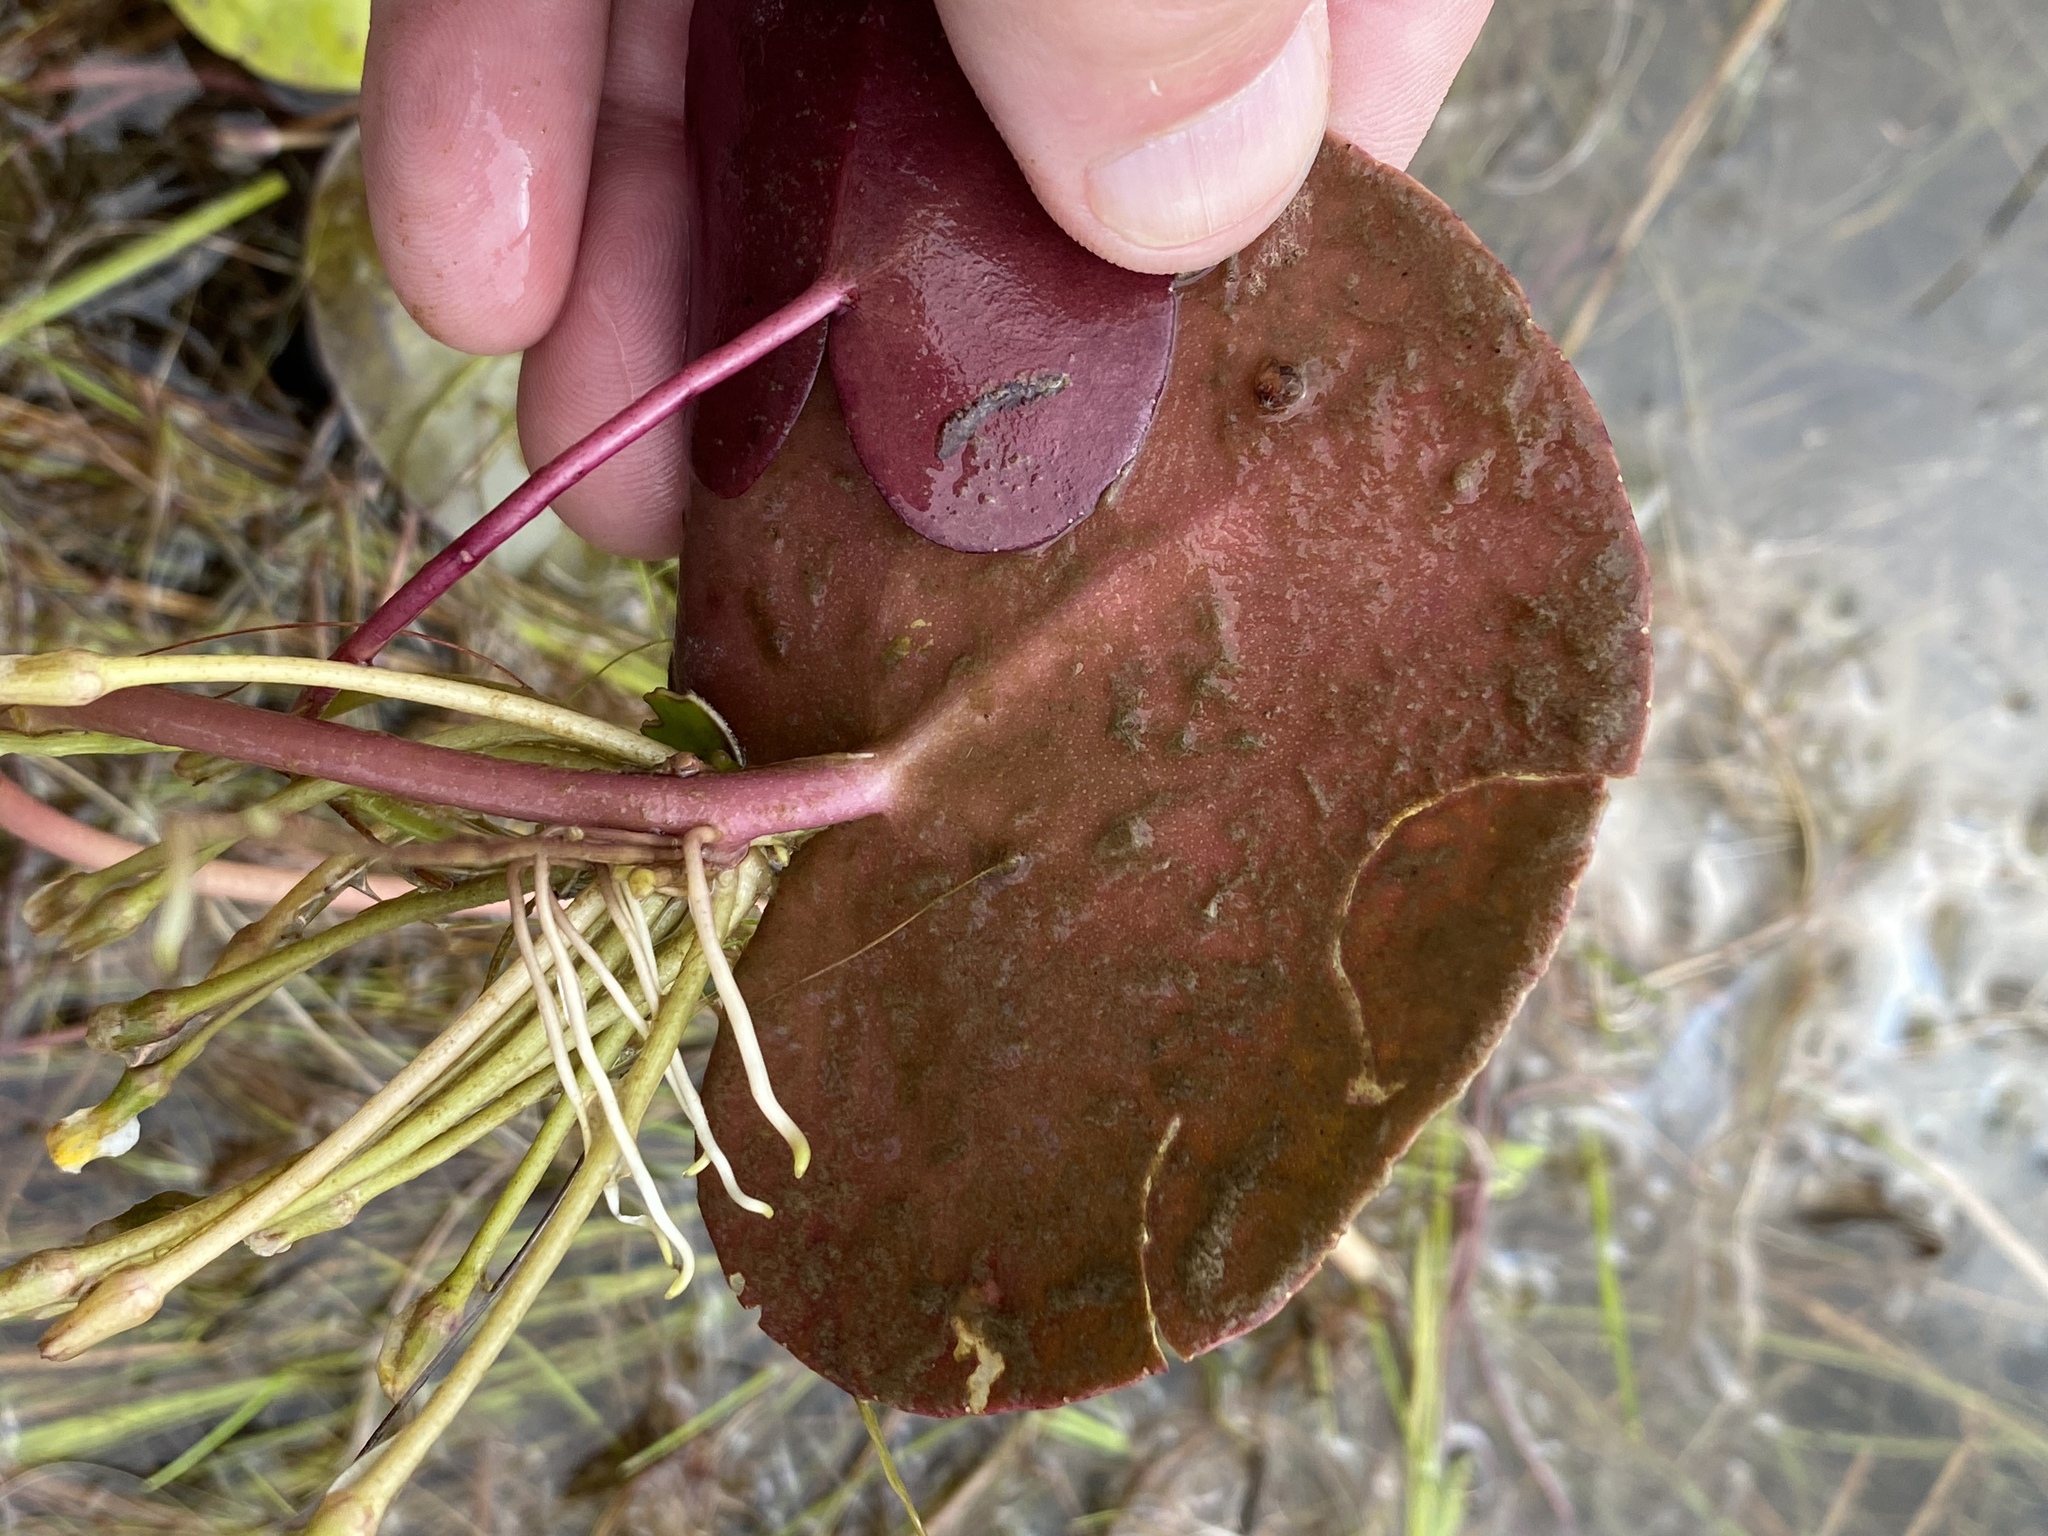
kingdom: Plantae
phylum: Tracheophyta
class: Magnoliopsida
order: Asterales
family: Menyanthaceae
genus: Nymphoides
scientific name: Nymphoides thunbergiana
